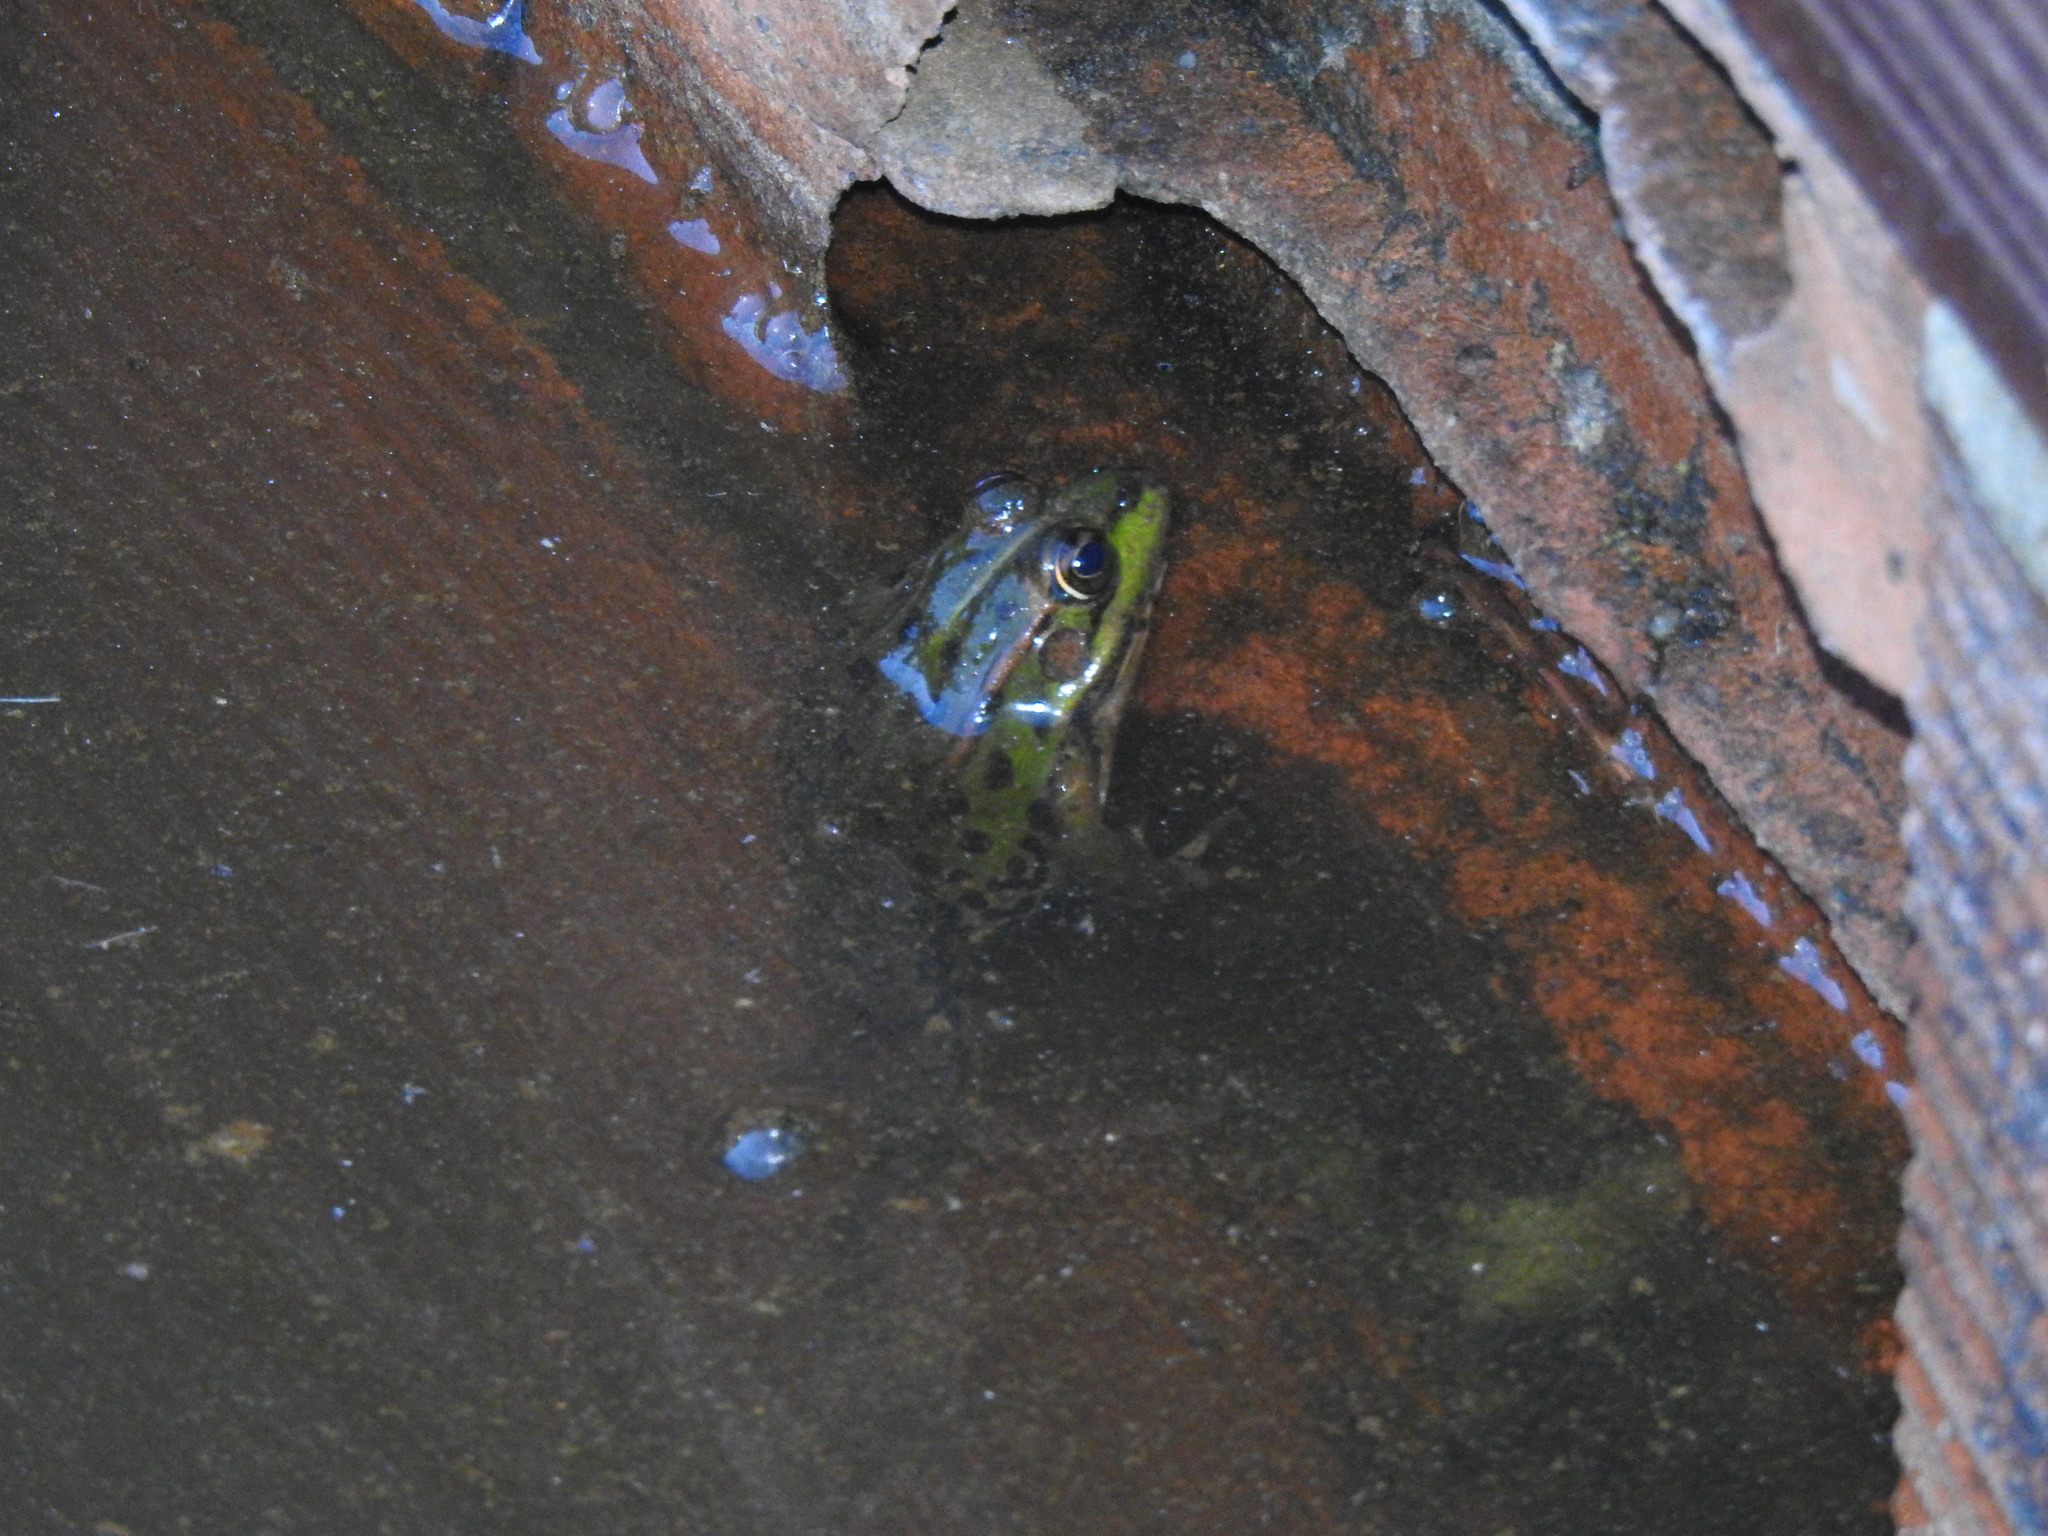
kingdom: Animalia
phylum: Chordata
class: Amphibia
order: Anura
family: Ranidae
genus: Pelophylax
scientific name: Pelophylax perezi
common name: Perez's frog
